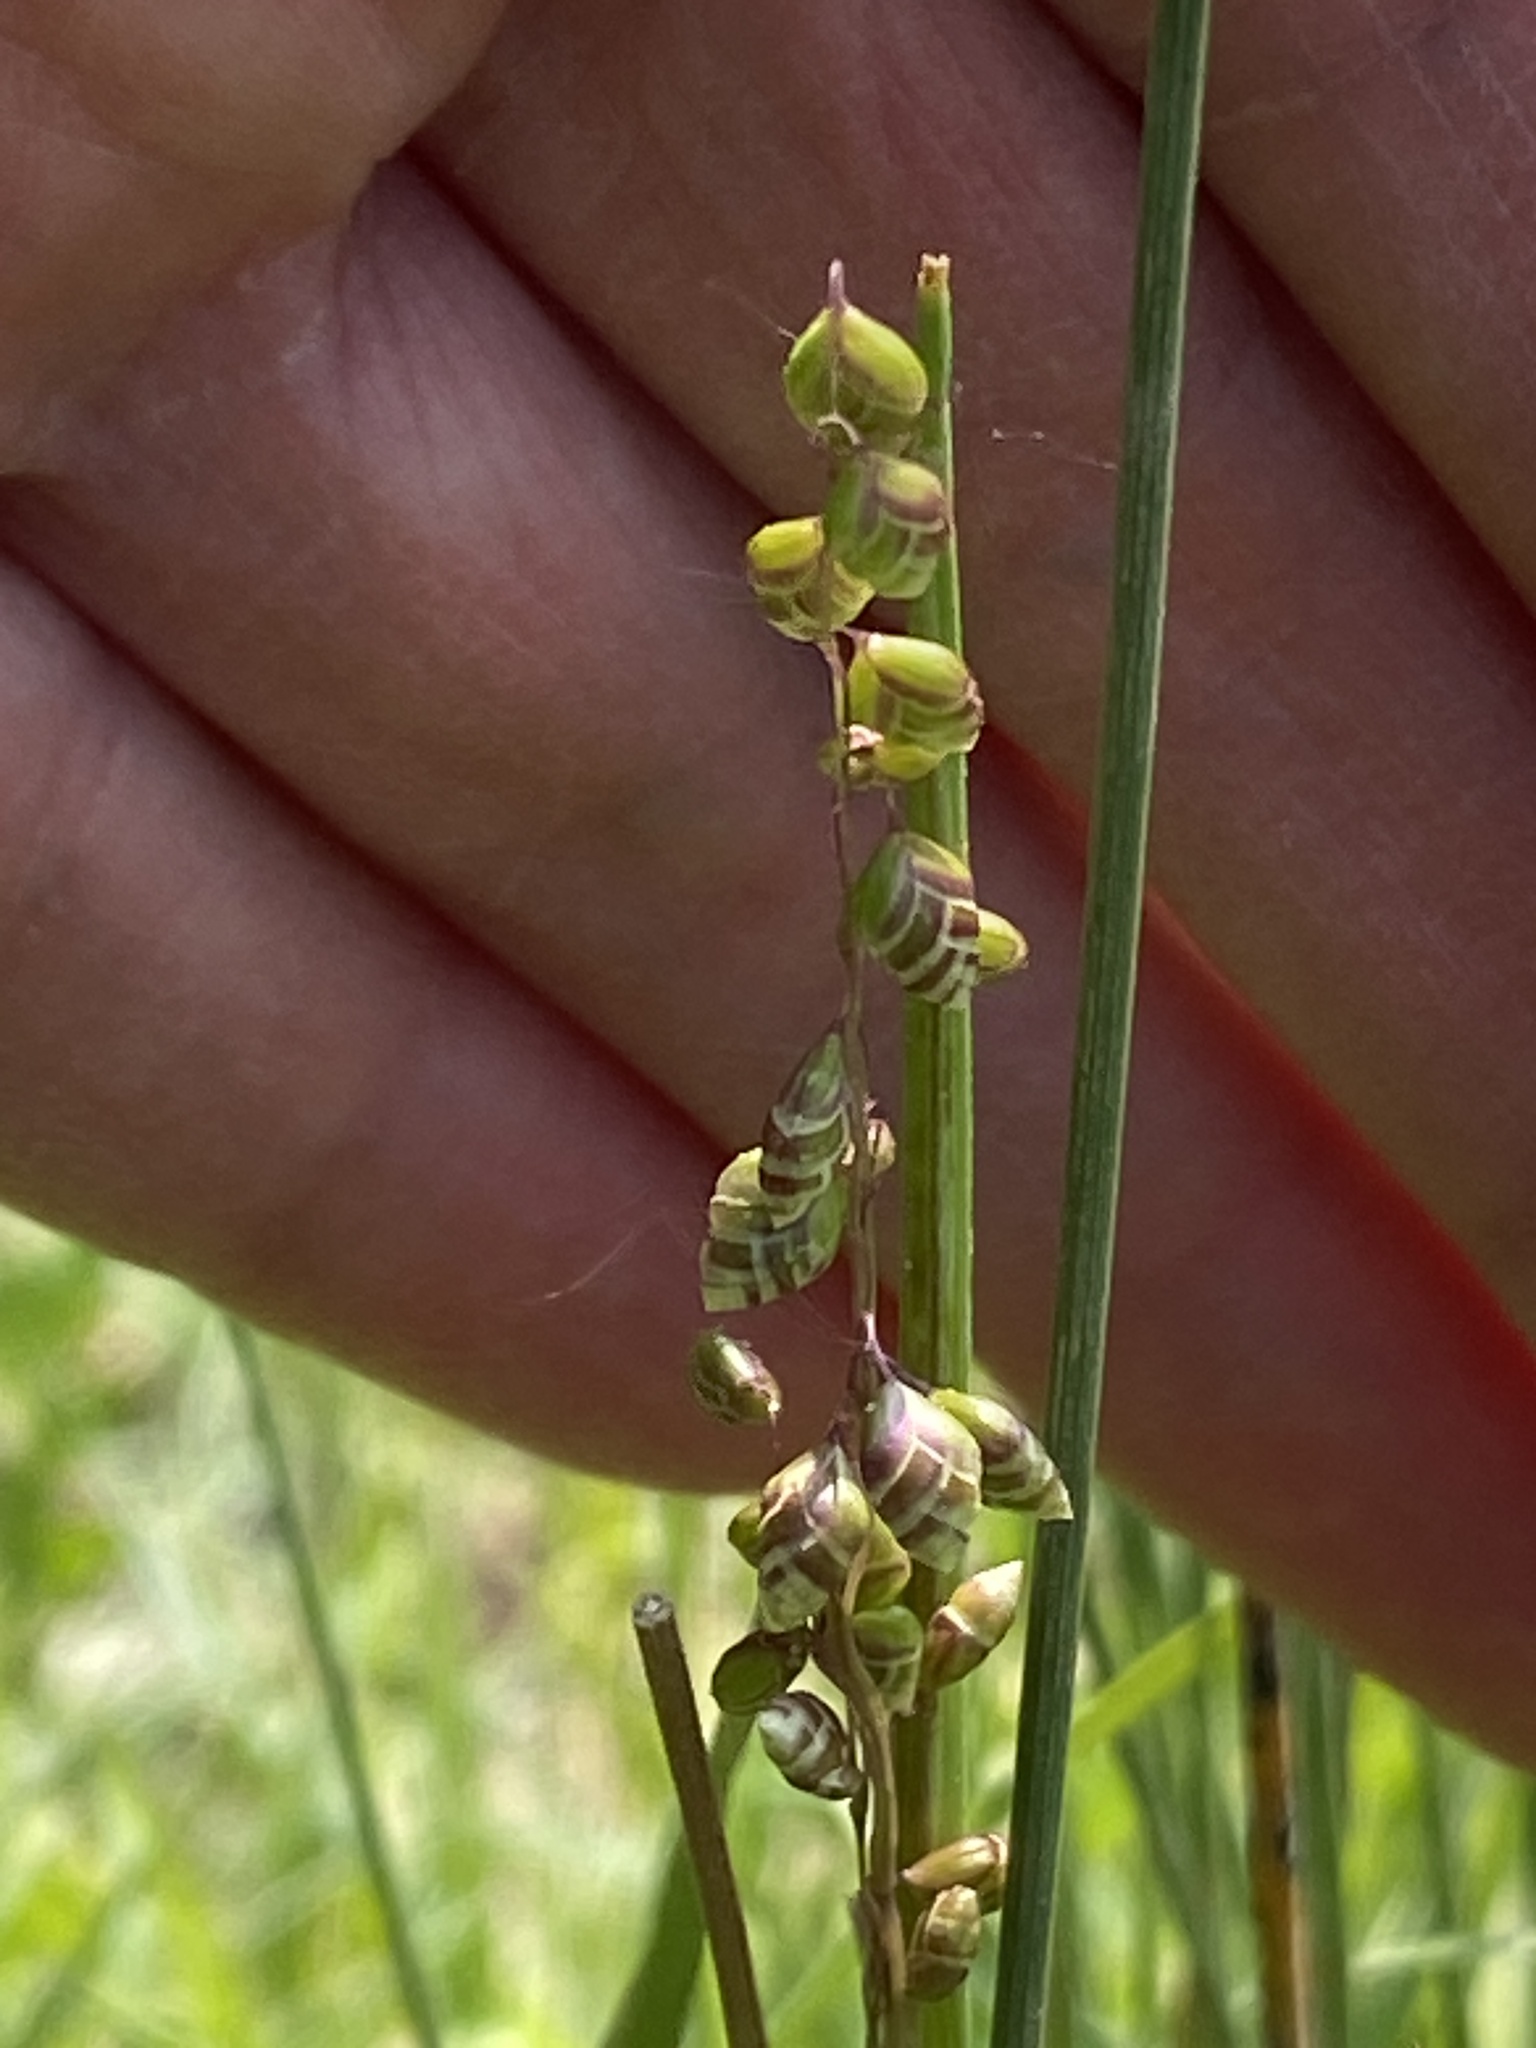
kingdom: Plantae
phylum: Tracheophyta
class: Liliopsida
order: Poales
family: Poaceae
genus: Briza
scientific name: Briza media
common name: Quaking grass
